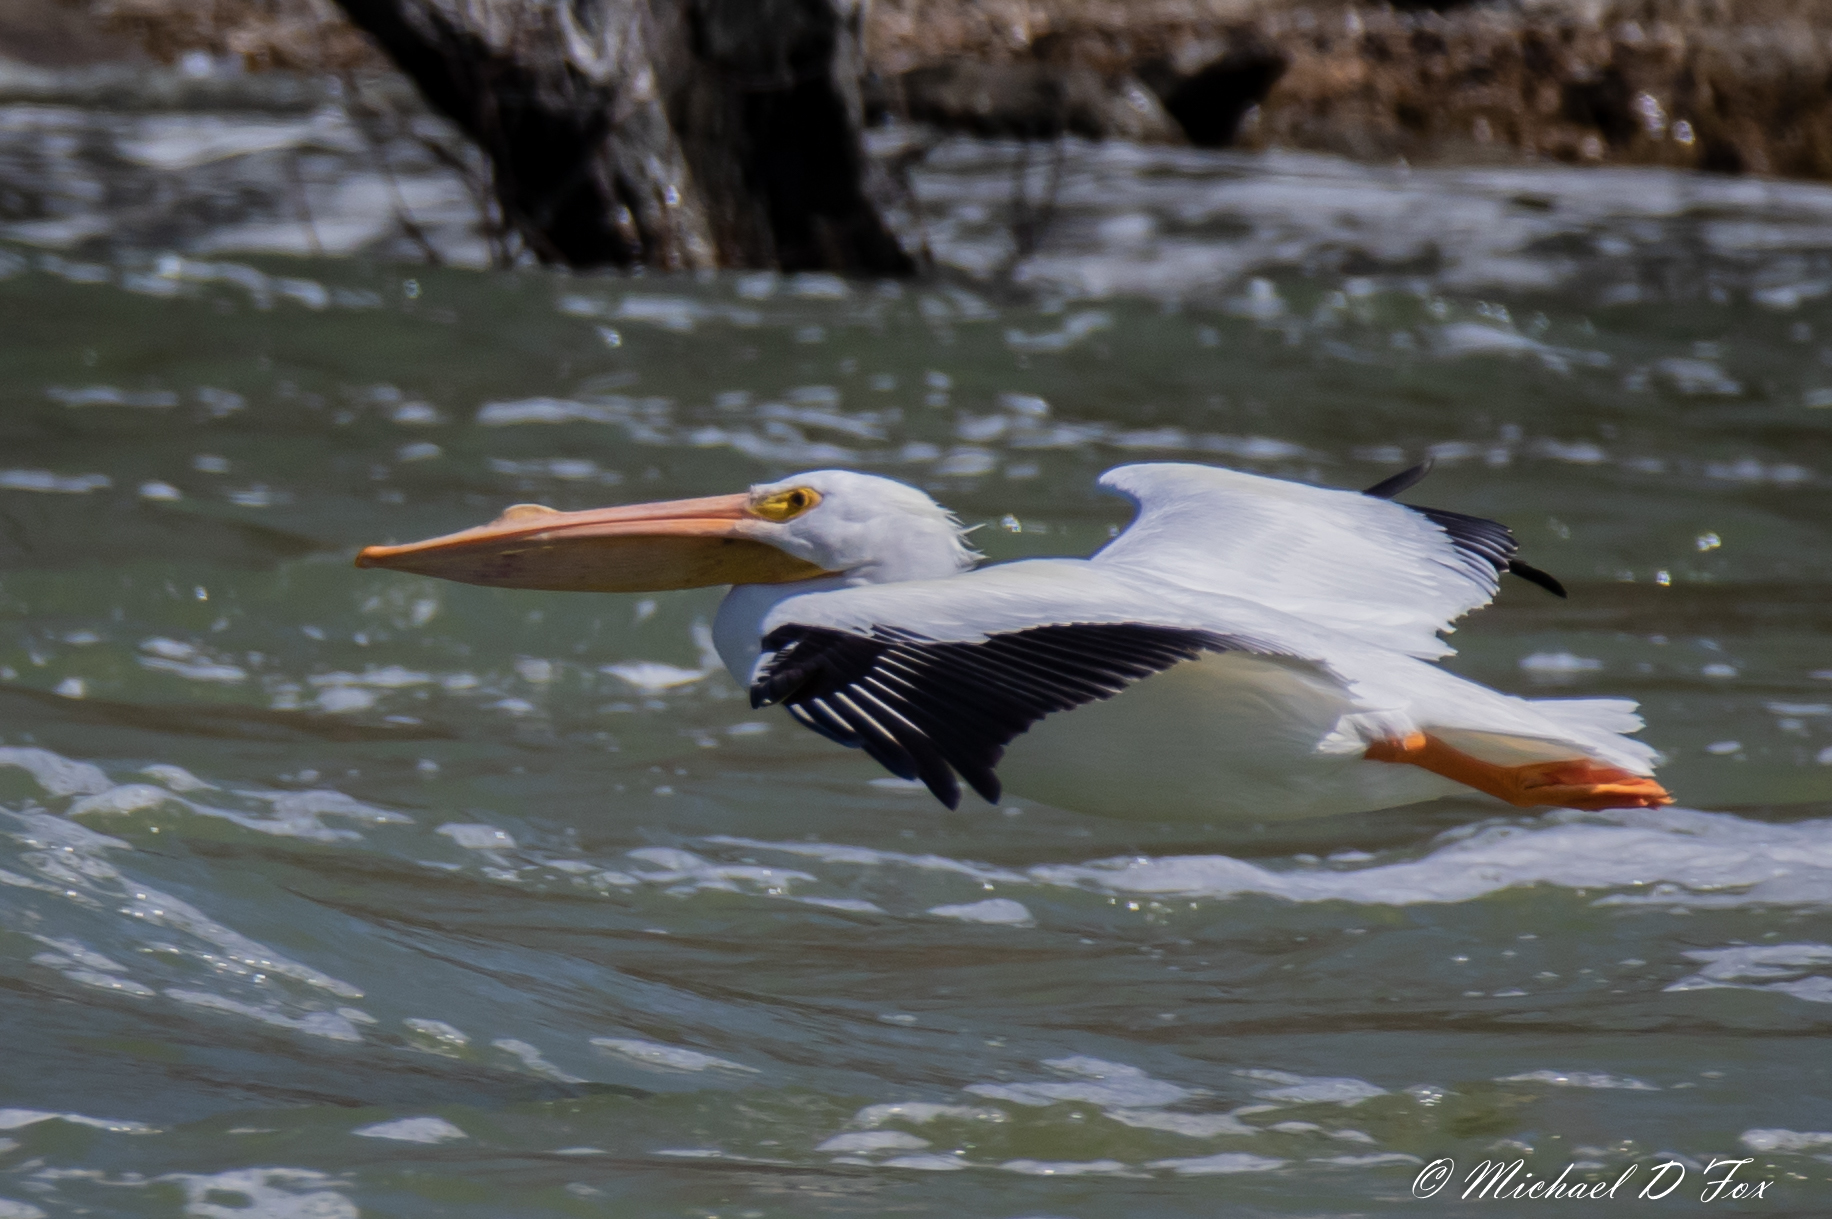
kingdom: Animalia
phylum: Chordata
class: Aves
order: Pelecaniformes
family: Pelecanidae
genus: Pelecanus
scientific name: Pelecanus erythrorhynchos
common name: American white pelican
